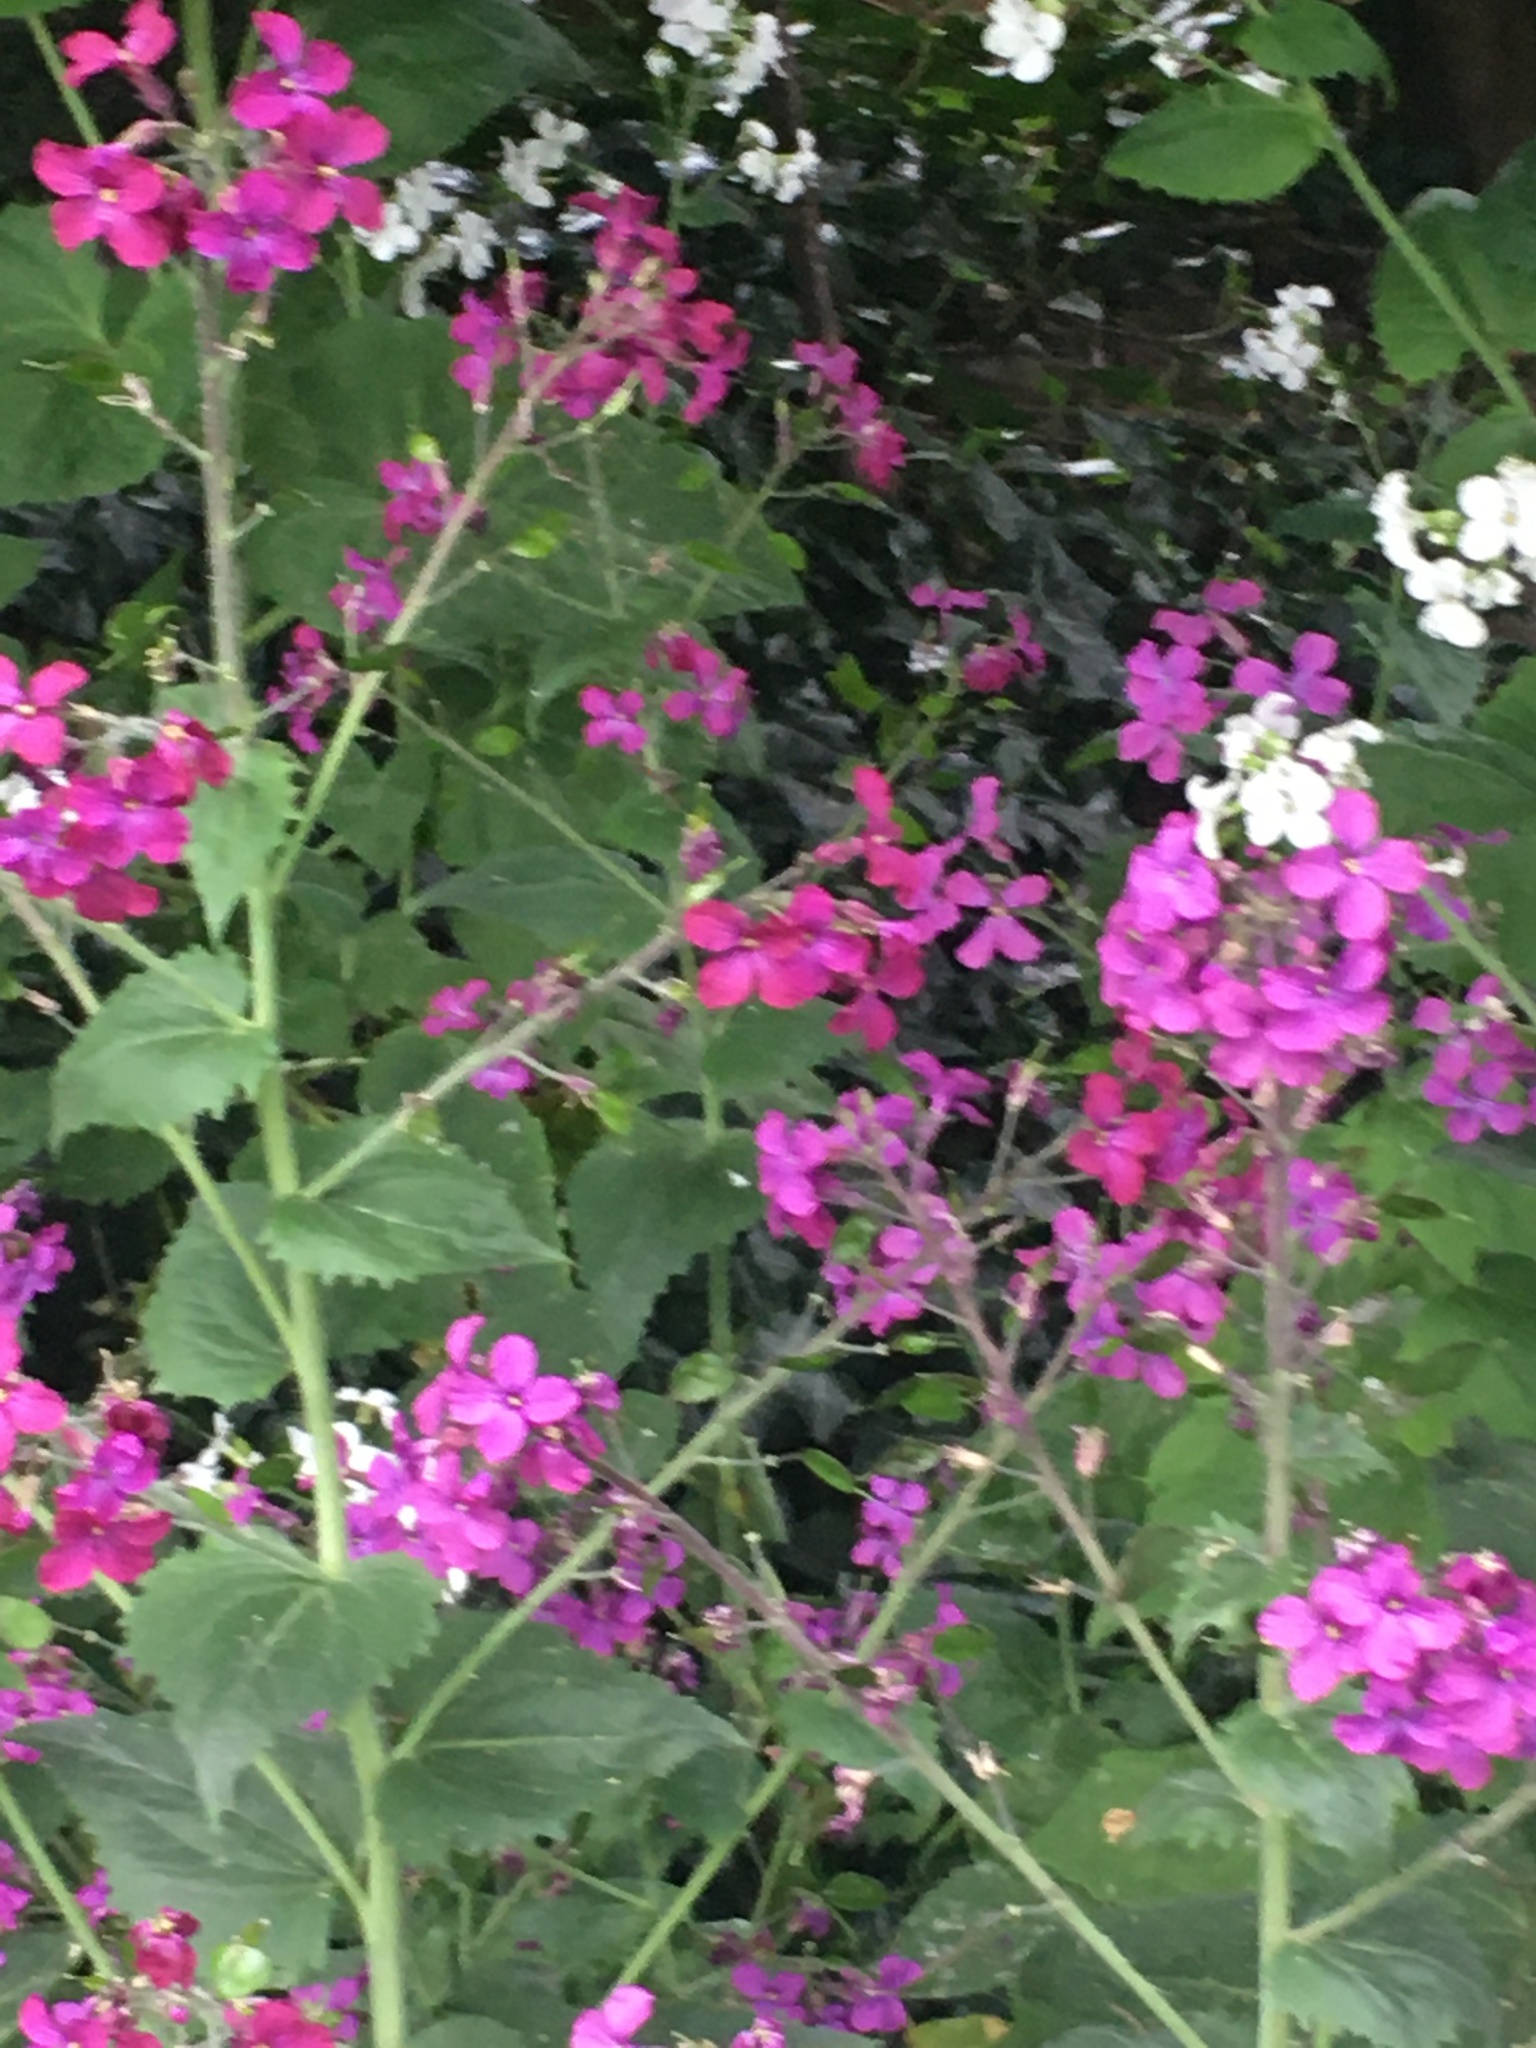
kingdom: Plantae
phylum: Tracheophyta
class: Magnoliopsida
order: Brassicales
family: Brassicaceae
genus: Lunaria
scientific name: Lunaria annua
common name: Honesty
